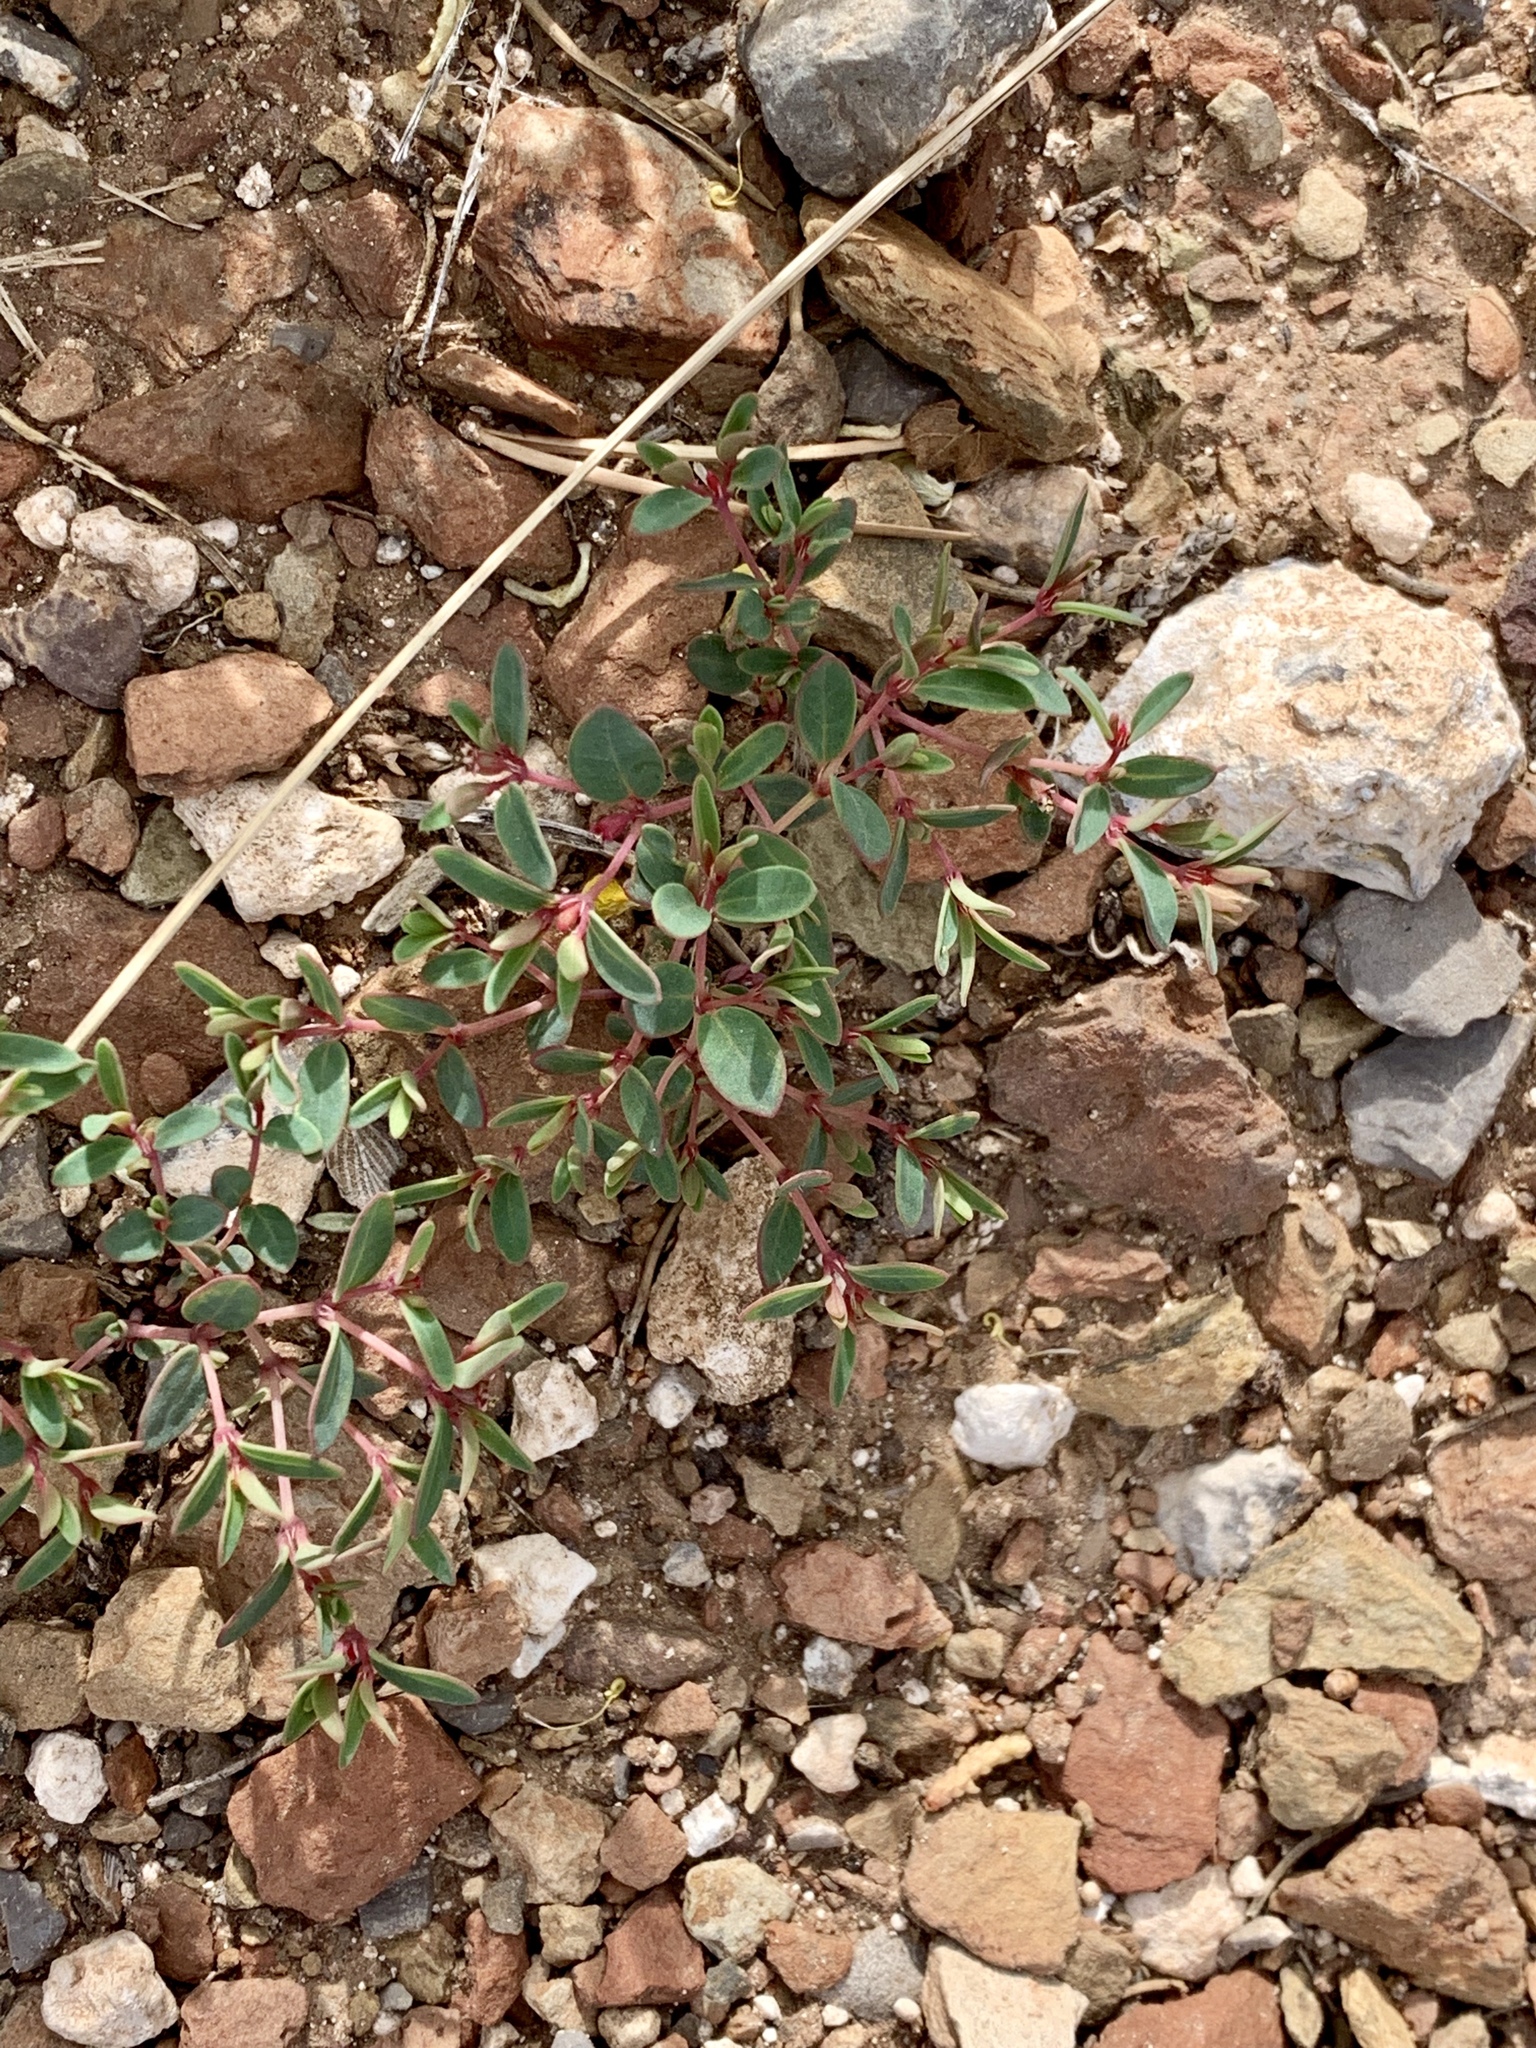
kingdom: Plantae
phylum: Tracheophyta
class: Magnoliopsida
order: Malpighiales
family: Euphorbiaceae
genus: Euphorbia
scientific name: Euphorbia fendleri
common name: Fendler's euphorbia
